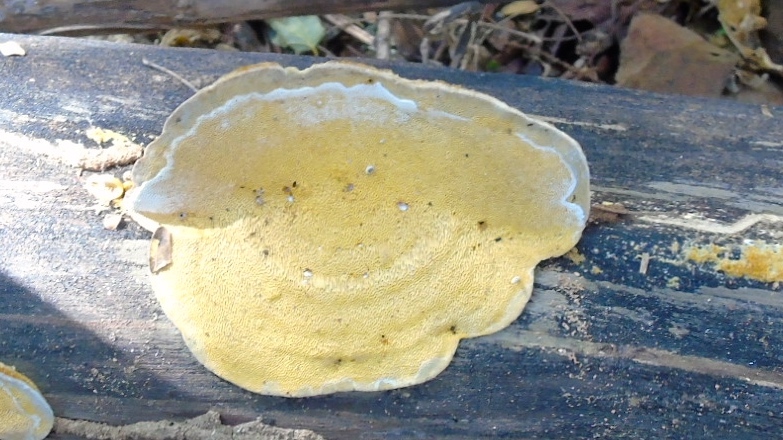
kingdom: Fungi
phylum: Basidiomycota
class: Agaricomycetes
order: Polyporales
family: Polyporaceae
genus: Trametes
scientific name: Trametes
